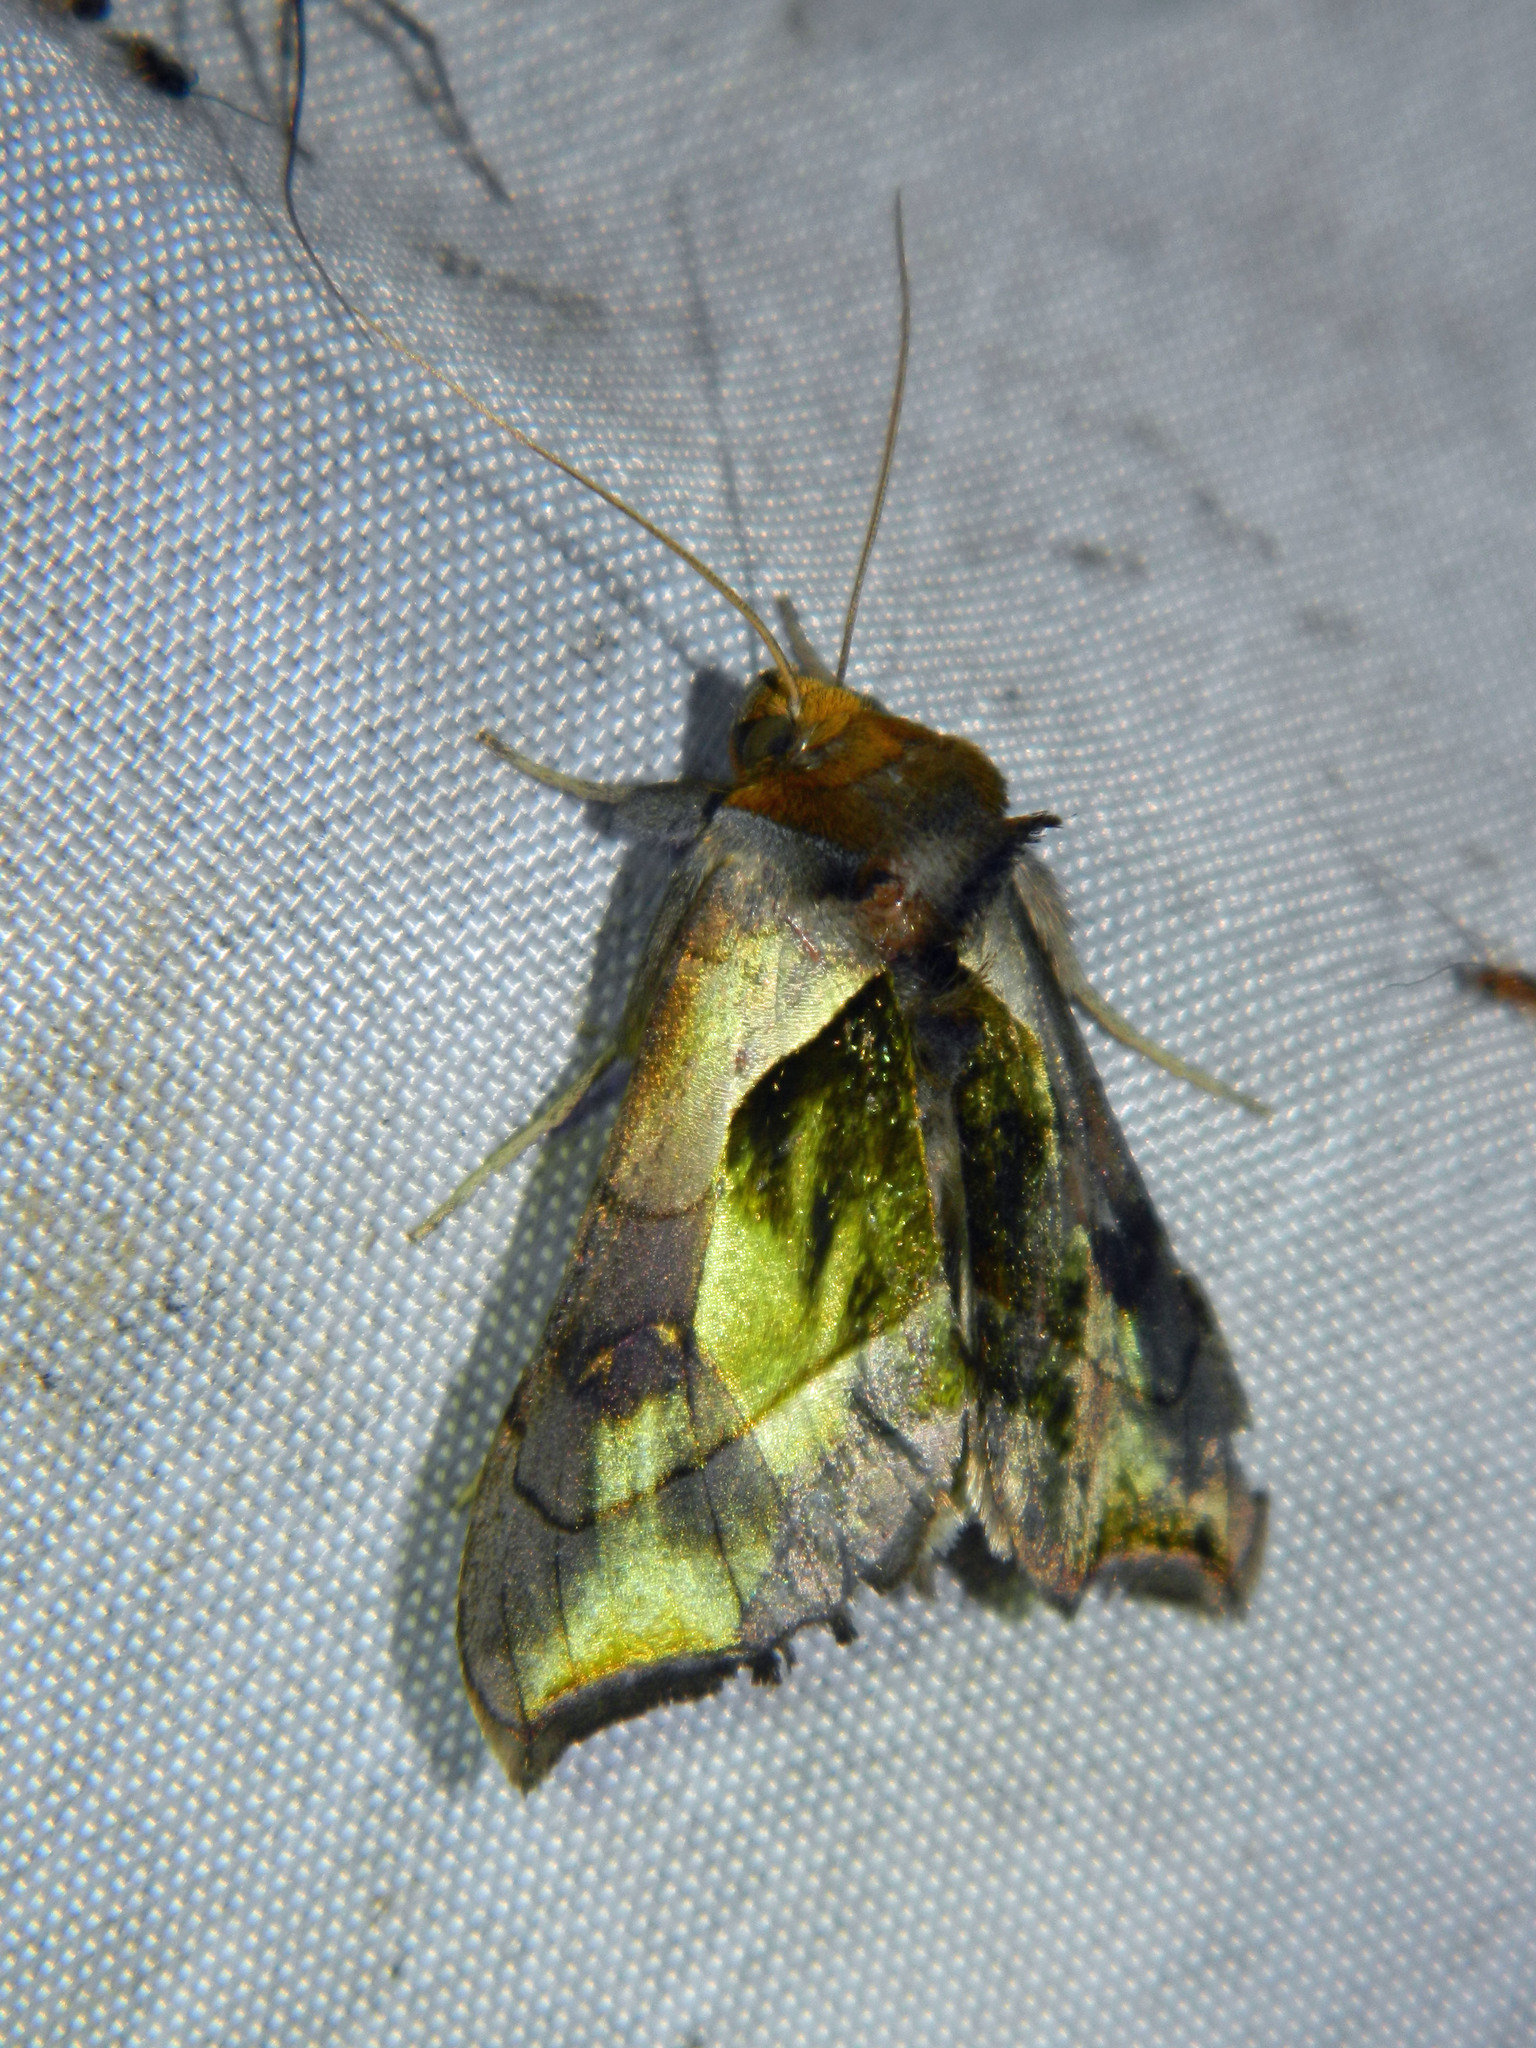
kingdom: Animalia
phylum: Arthropoda
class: Insecta
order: Lepidoptera
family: Noctuidae
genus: Diachrysia
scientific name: Diachrysia balluca
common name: Green-patched looper moth
